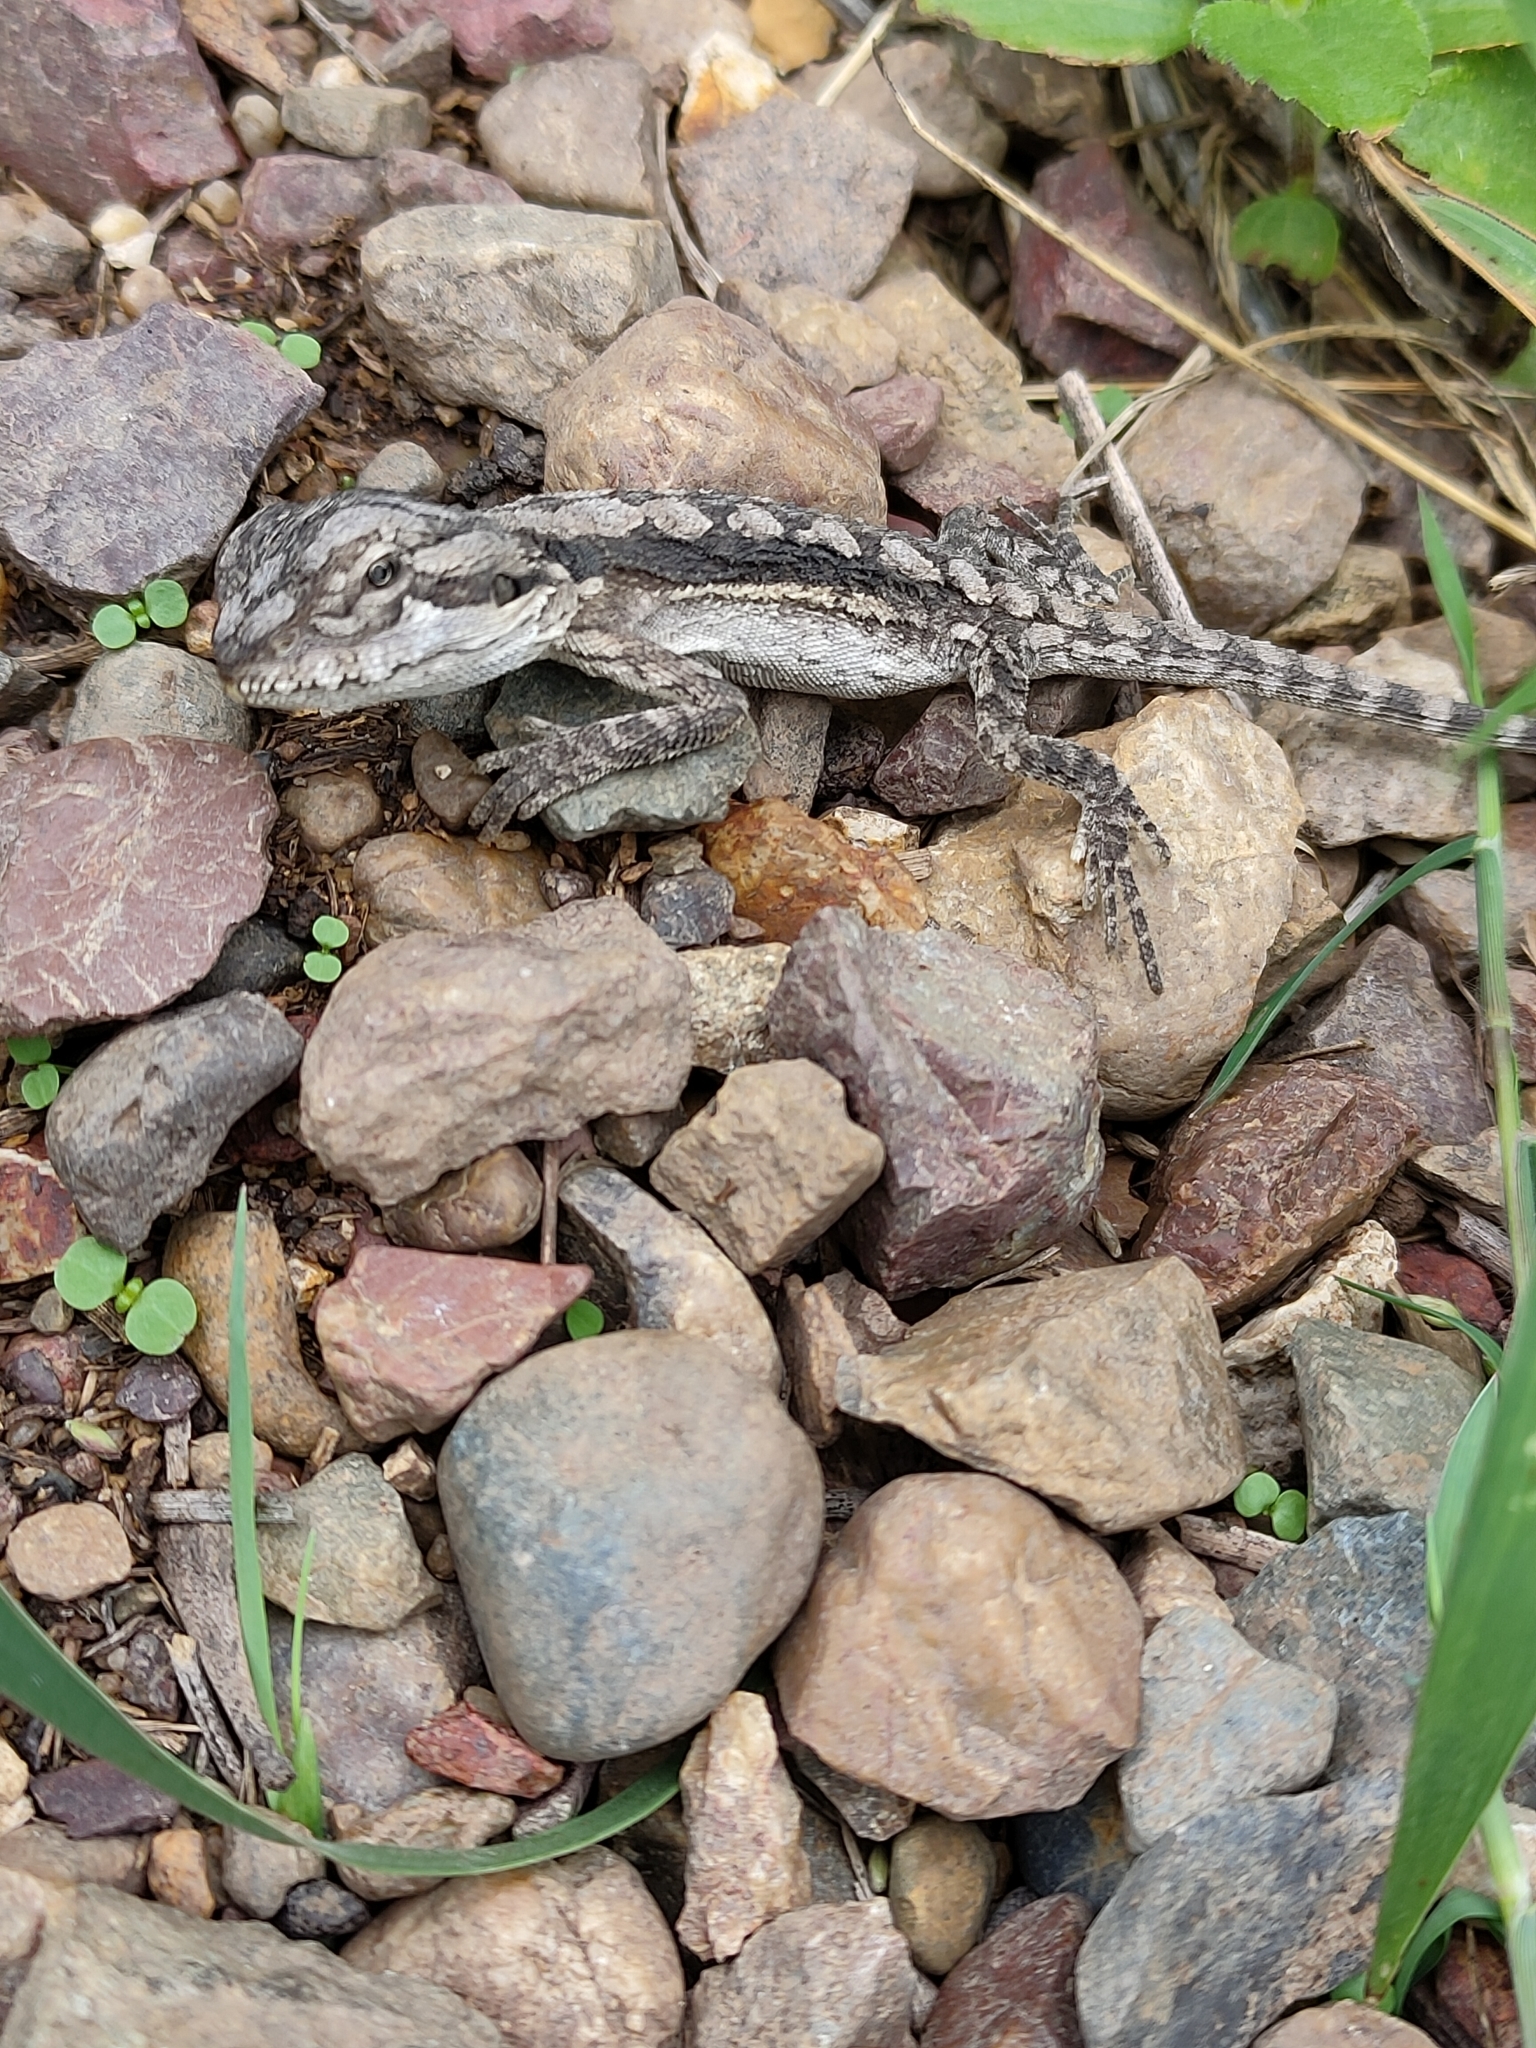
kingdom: Animalia
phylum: Chordata
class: Squamata
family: Agamidae
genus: Pogona
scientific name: Pogona barbata
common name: Bearded dragon
